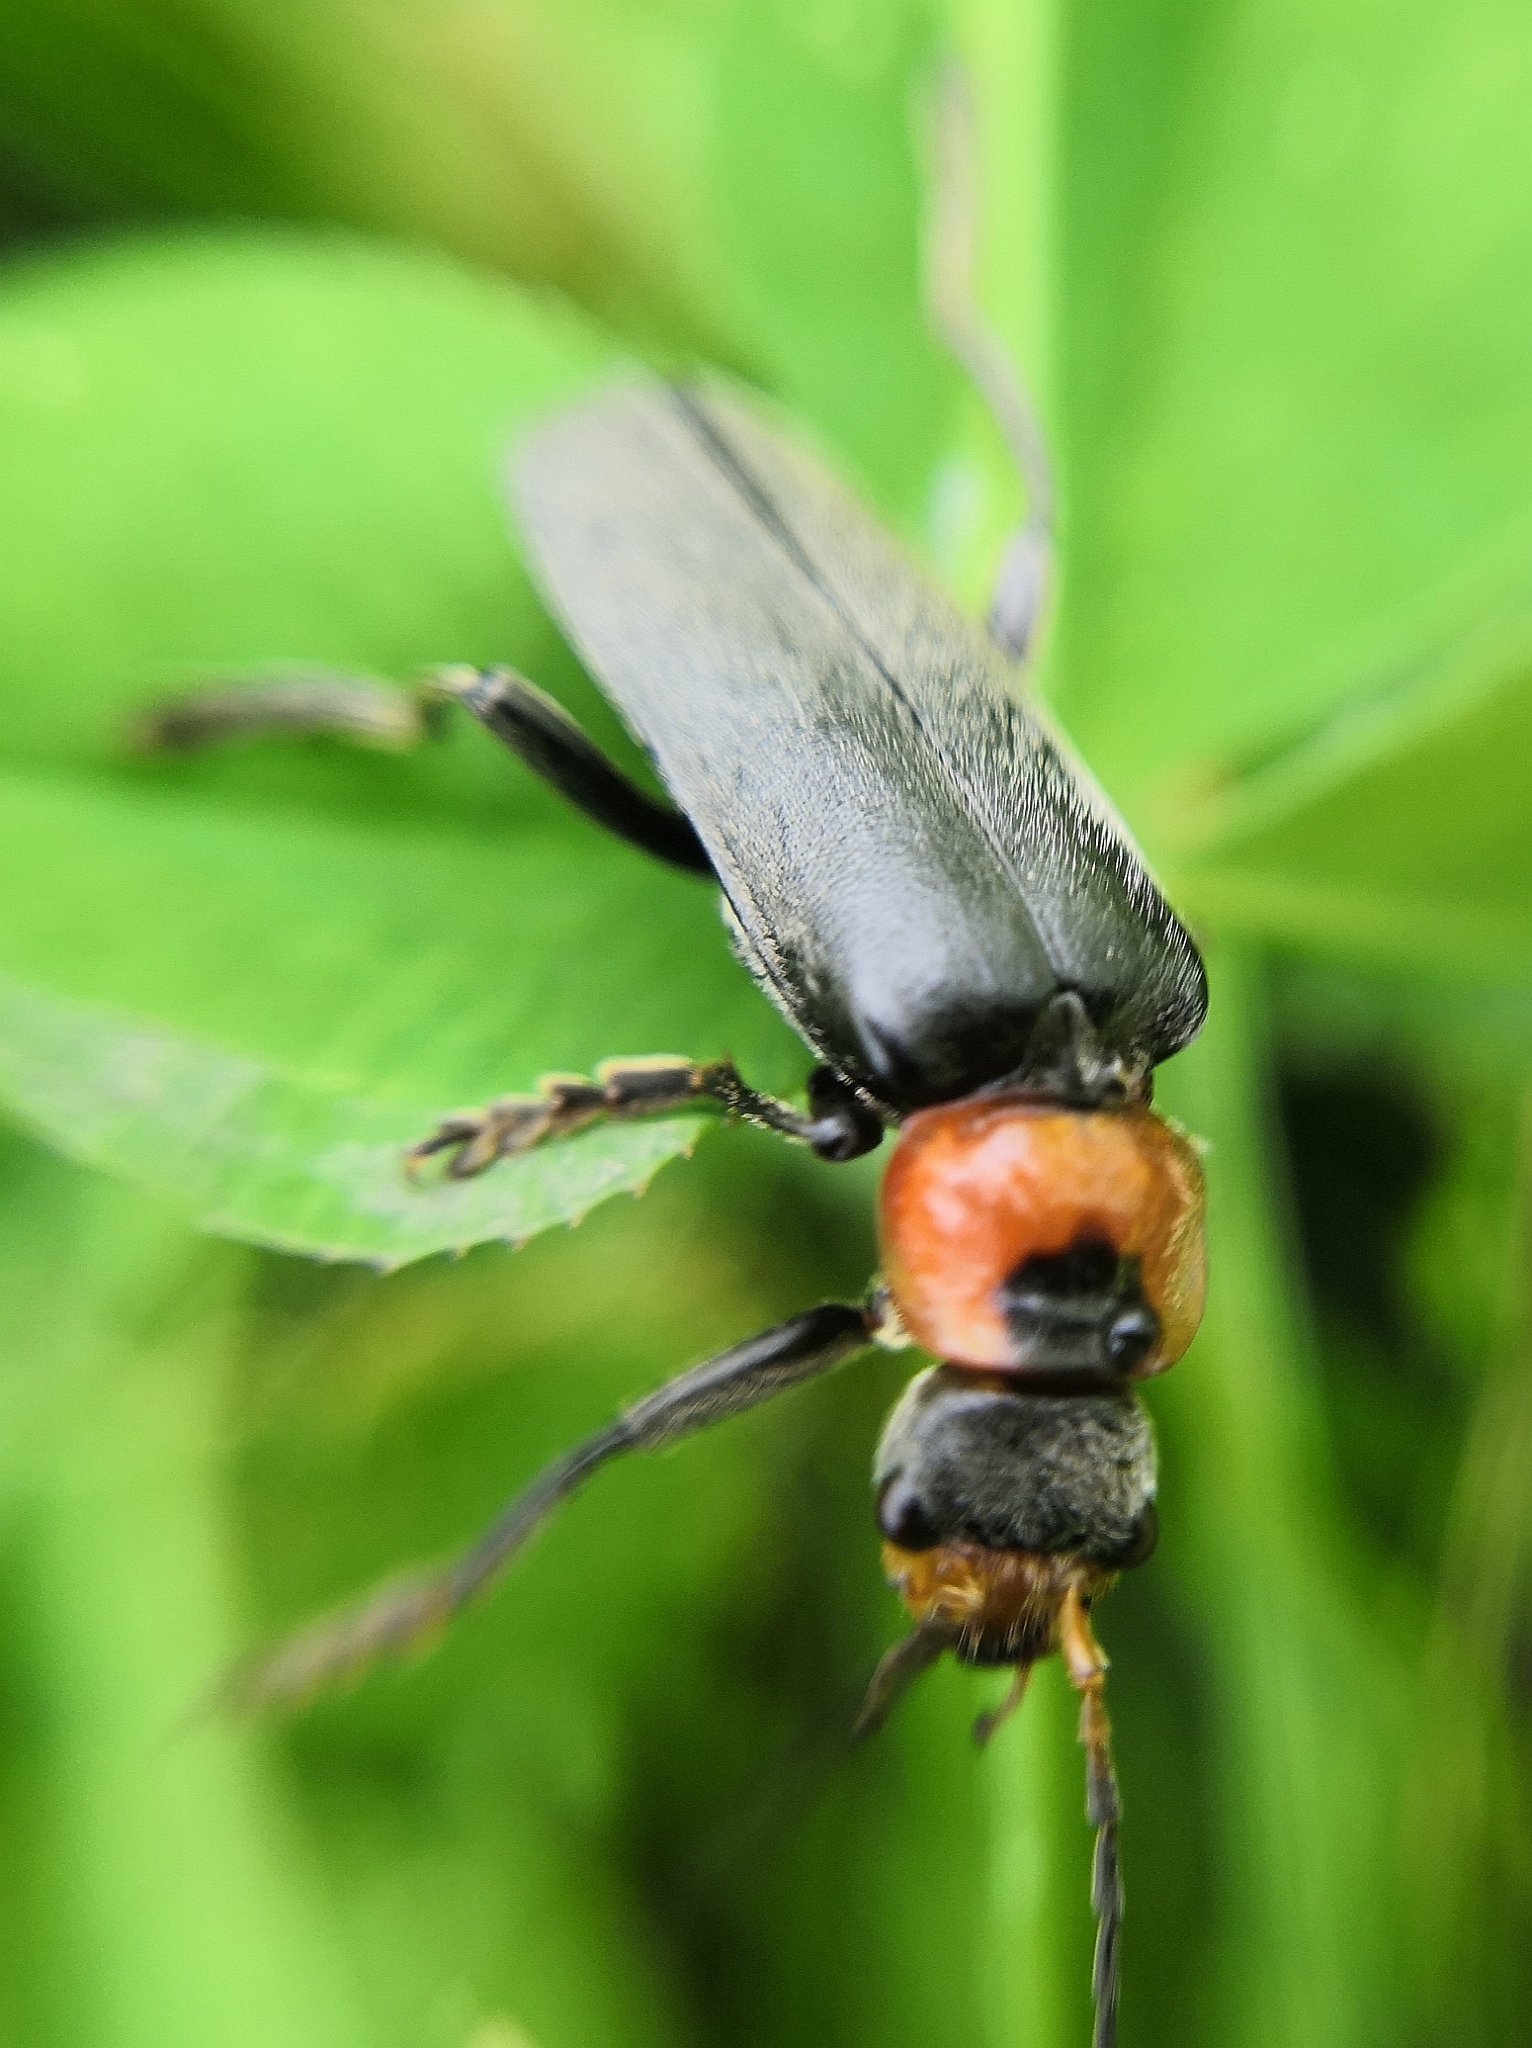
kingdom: Animalia
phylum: Arthropoda
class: Insecta
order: Coleoptera
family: Cantharidae
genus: Cantharis
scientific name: Cantharis fusca
